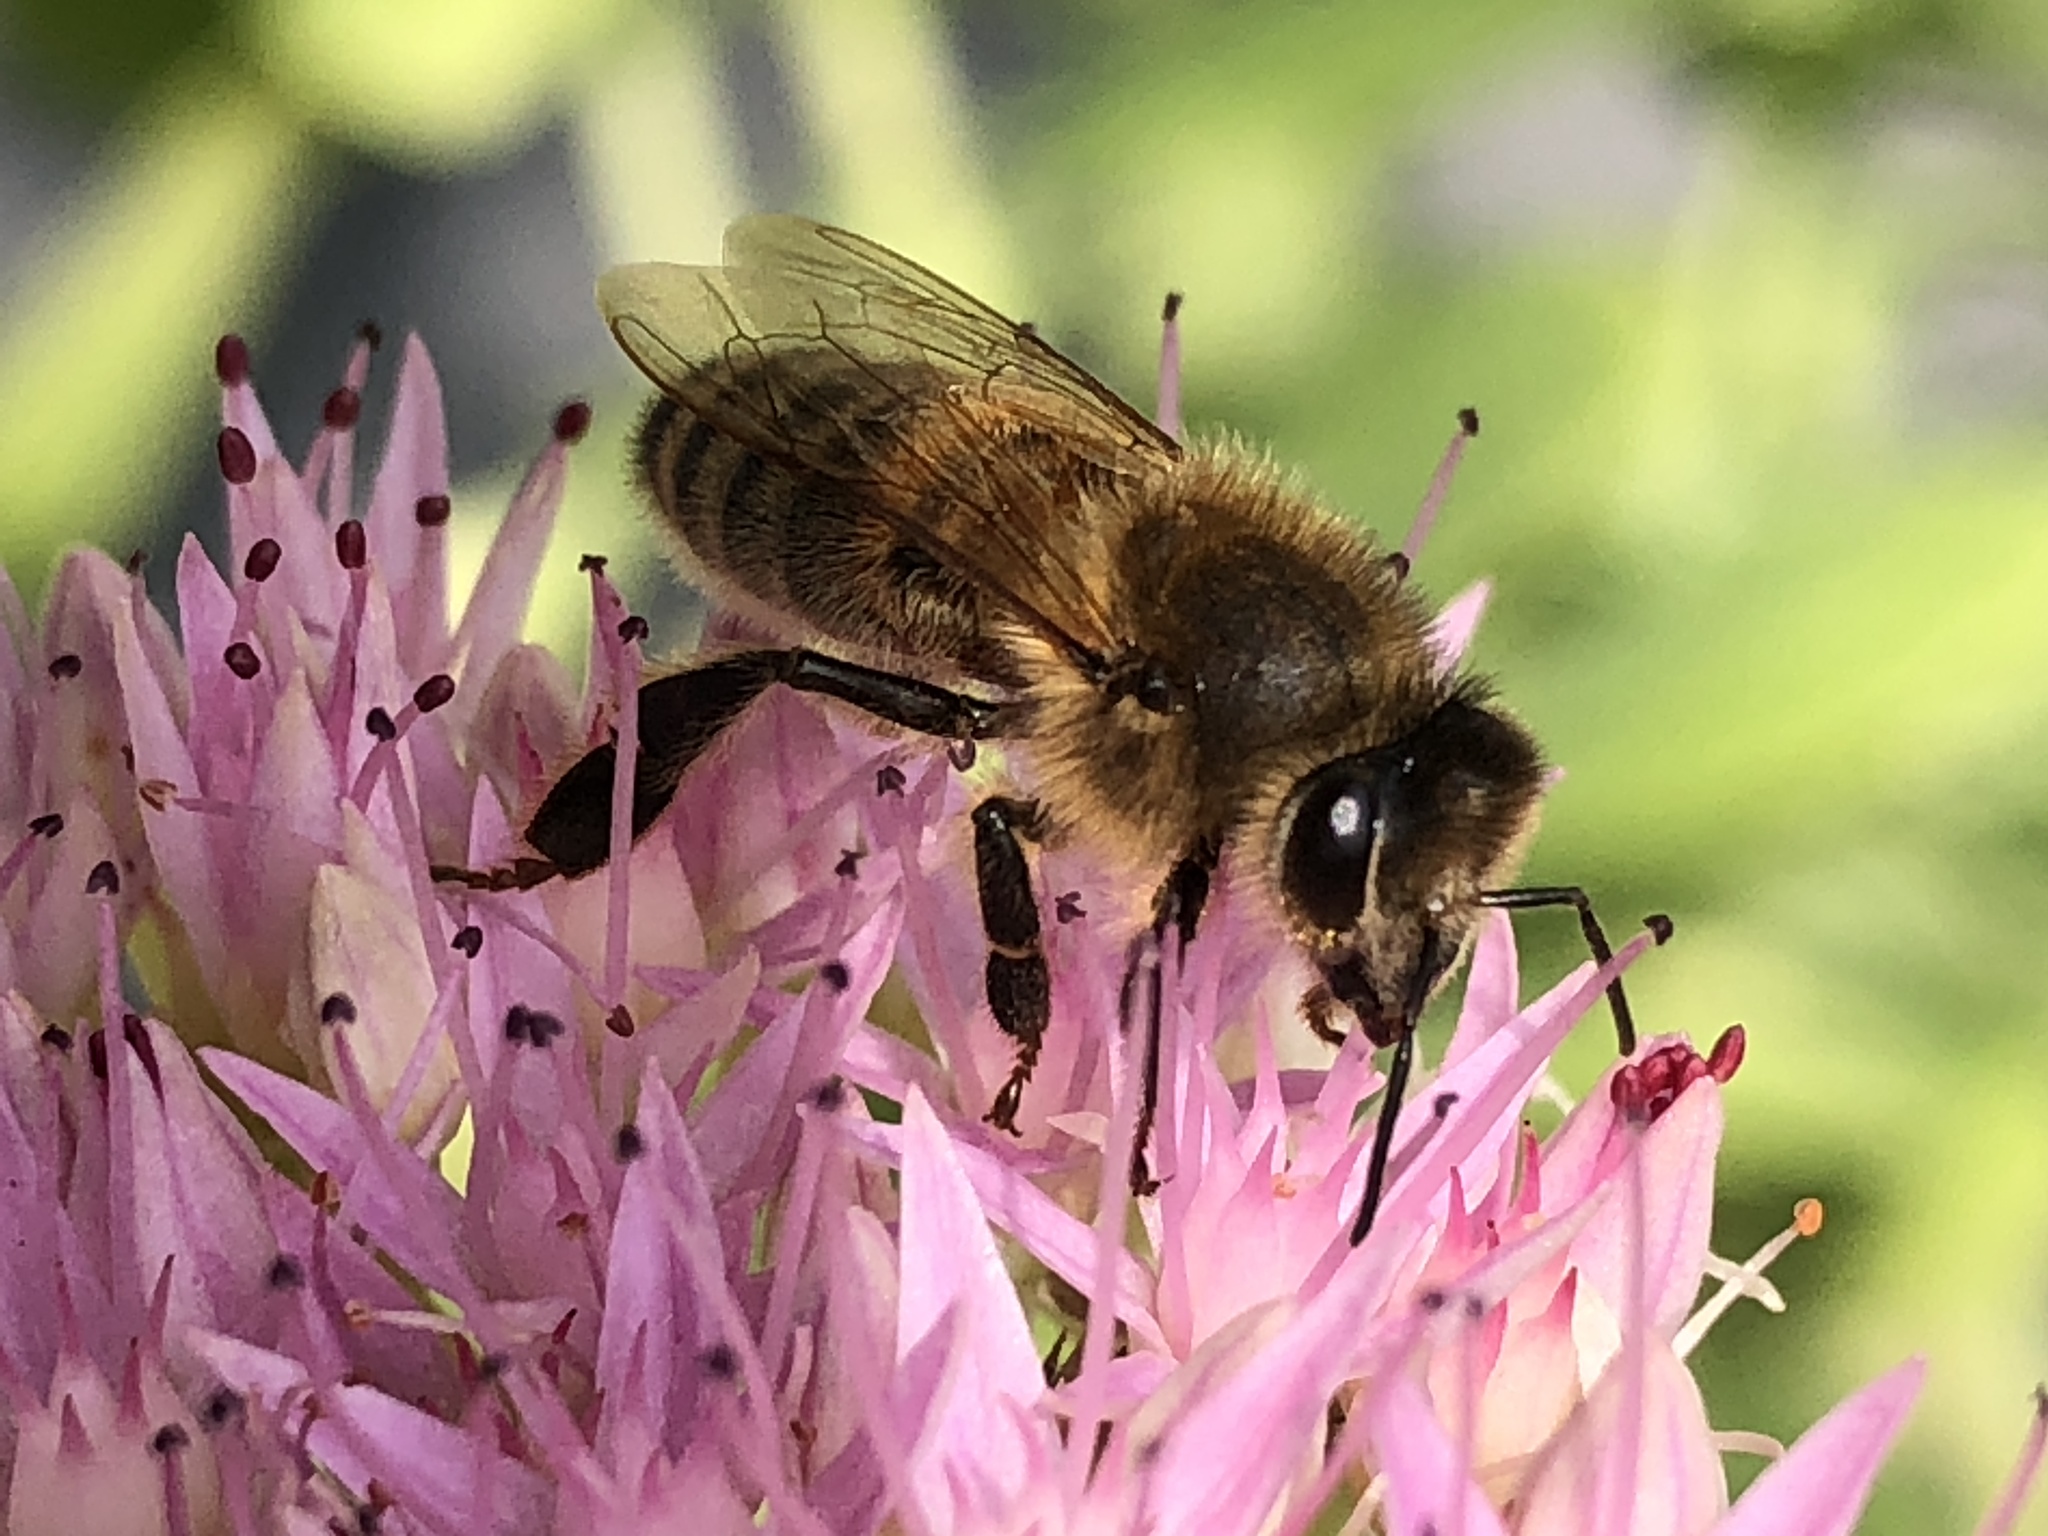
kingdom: Animalia
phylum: Arthropoda
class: Insecta
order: Hymenoptera
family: Apidae
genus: Apis
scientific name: Apis mellifera
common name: Honey bee
